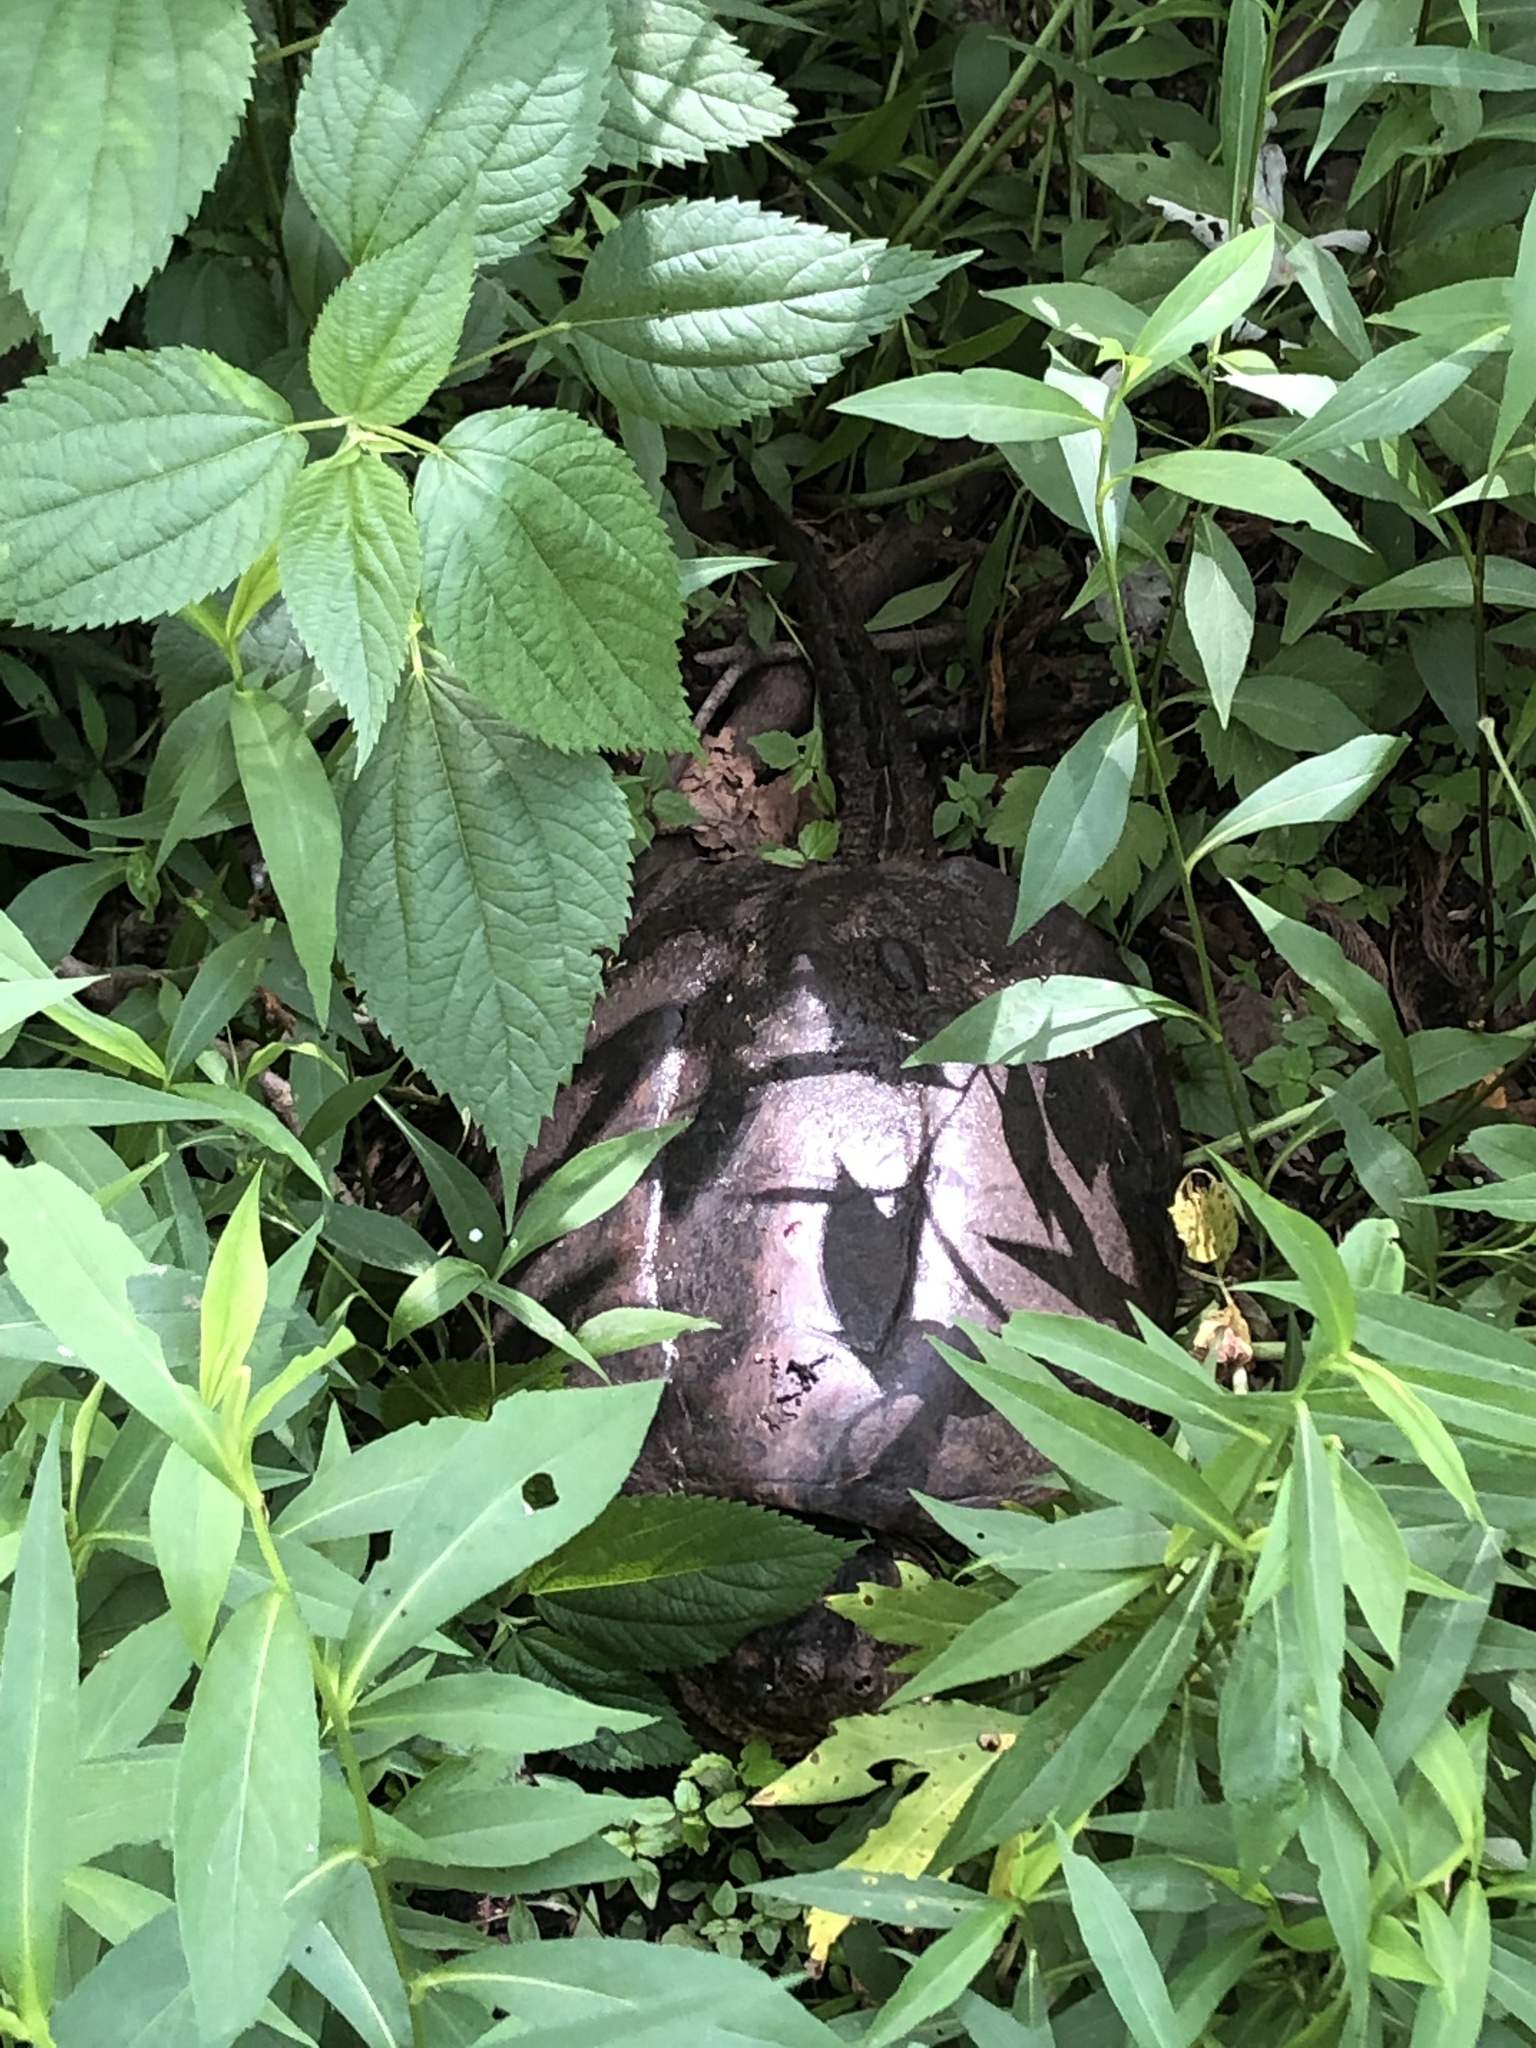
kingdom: Animalia
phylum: Chordata
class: Testudines
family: Chelydridae
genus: Chelydra
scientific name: Chelydra serpentina
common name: Common snapping turtle
